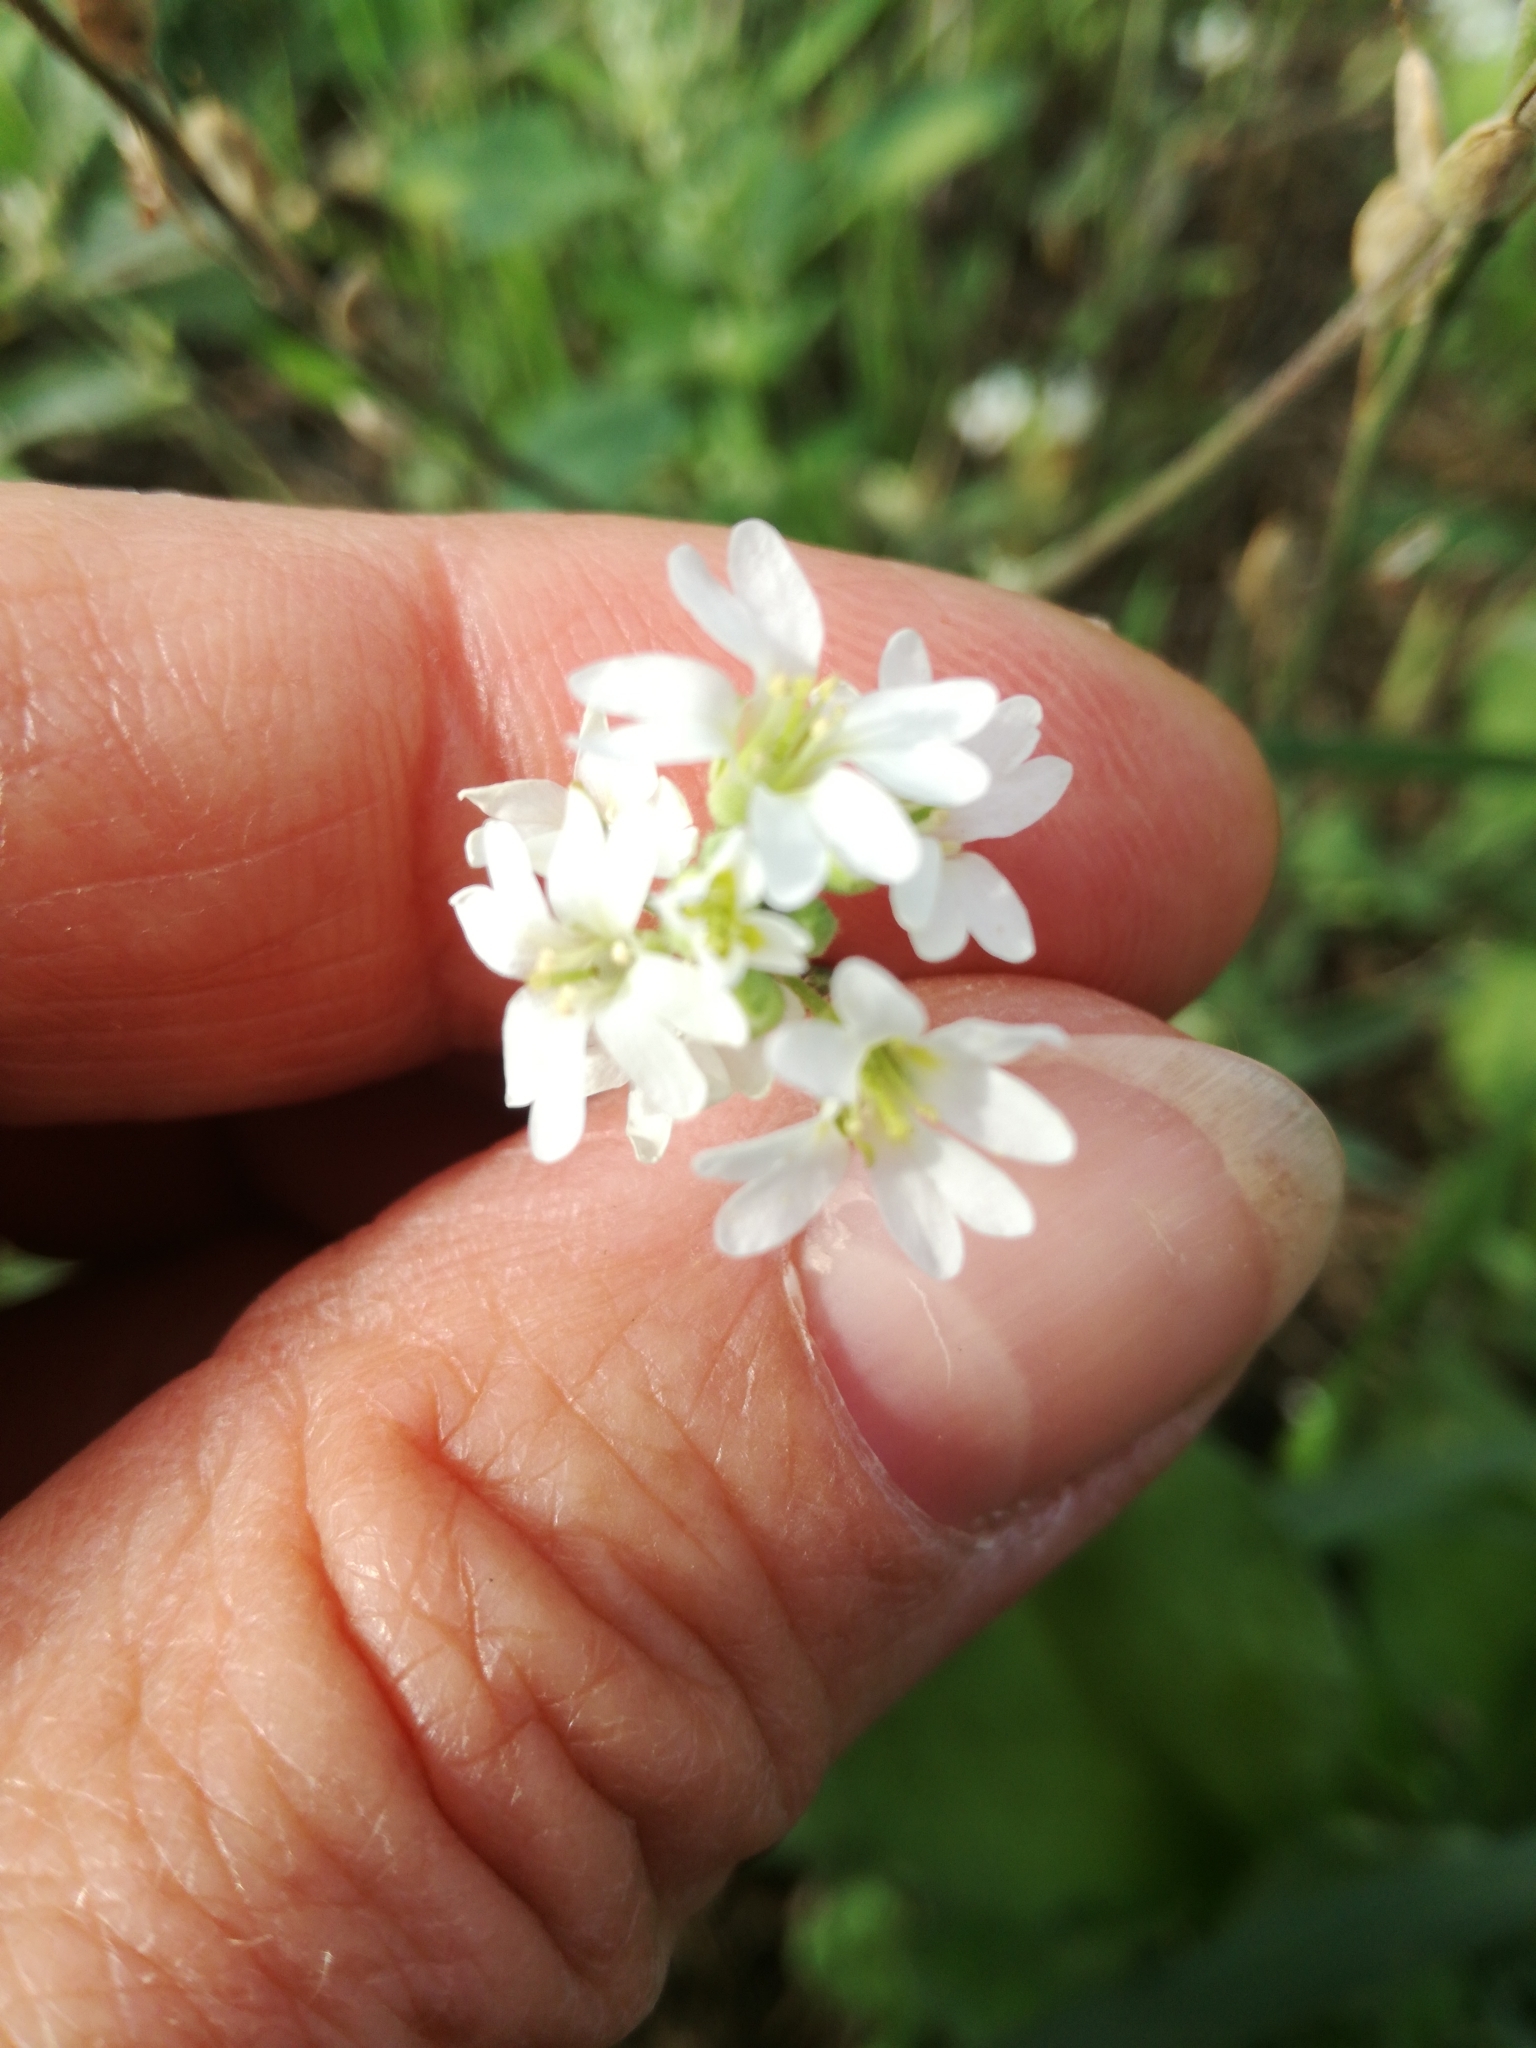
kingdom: Plantae
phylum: Tracheophyta
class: Magnoliopsida
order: Brassicales
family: Brassicaceae
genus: Berteroa
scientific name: Berteroa incana
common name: Hoary alison
